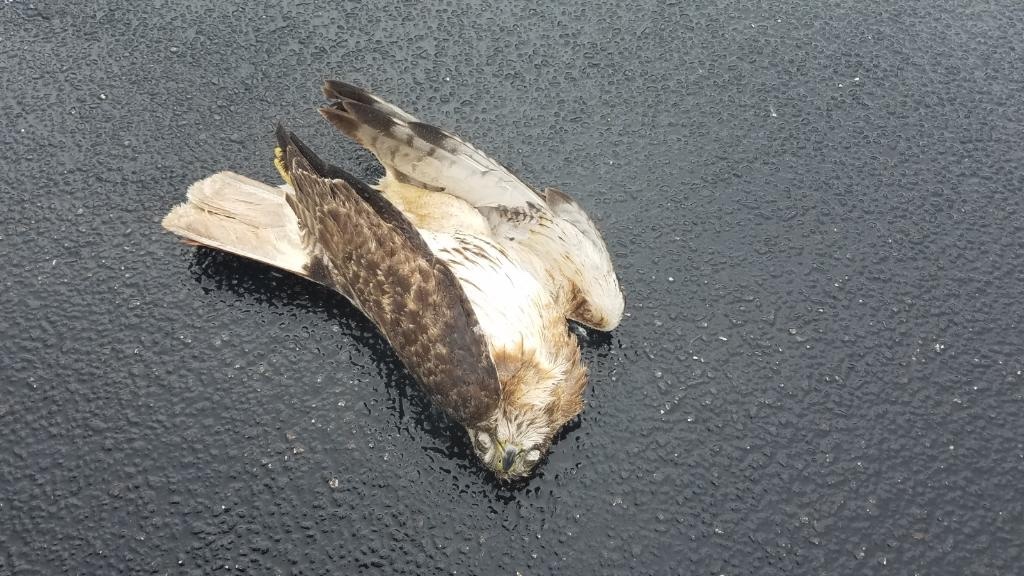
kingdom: Animalia
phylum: Chordata
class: Aves
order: Accipitriformes
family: Accipitridae
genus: Buteo
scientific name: Buteo jamaicensis
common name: Red-tailed hawk
